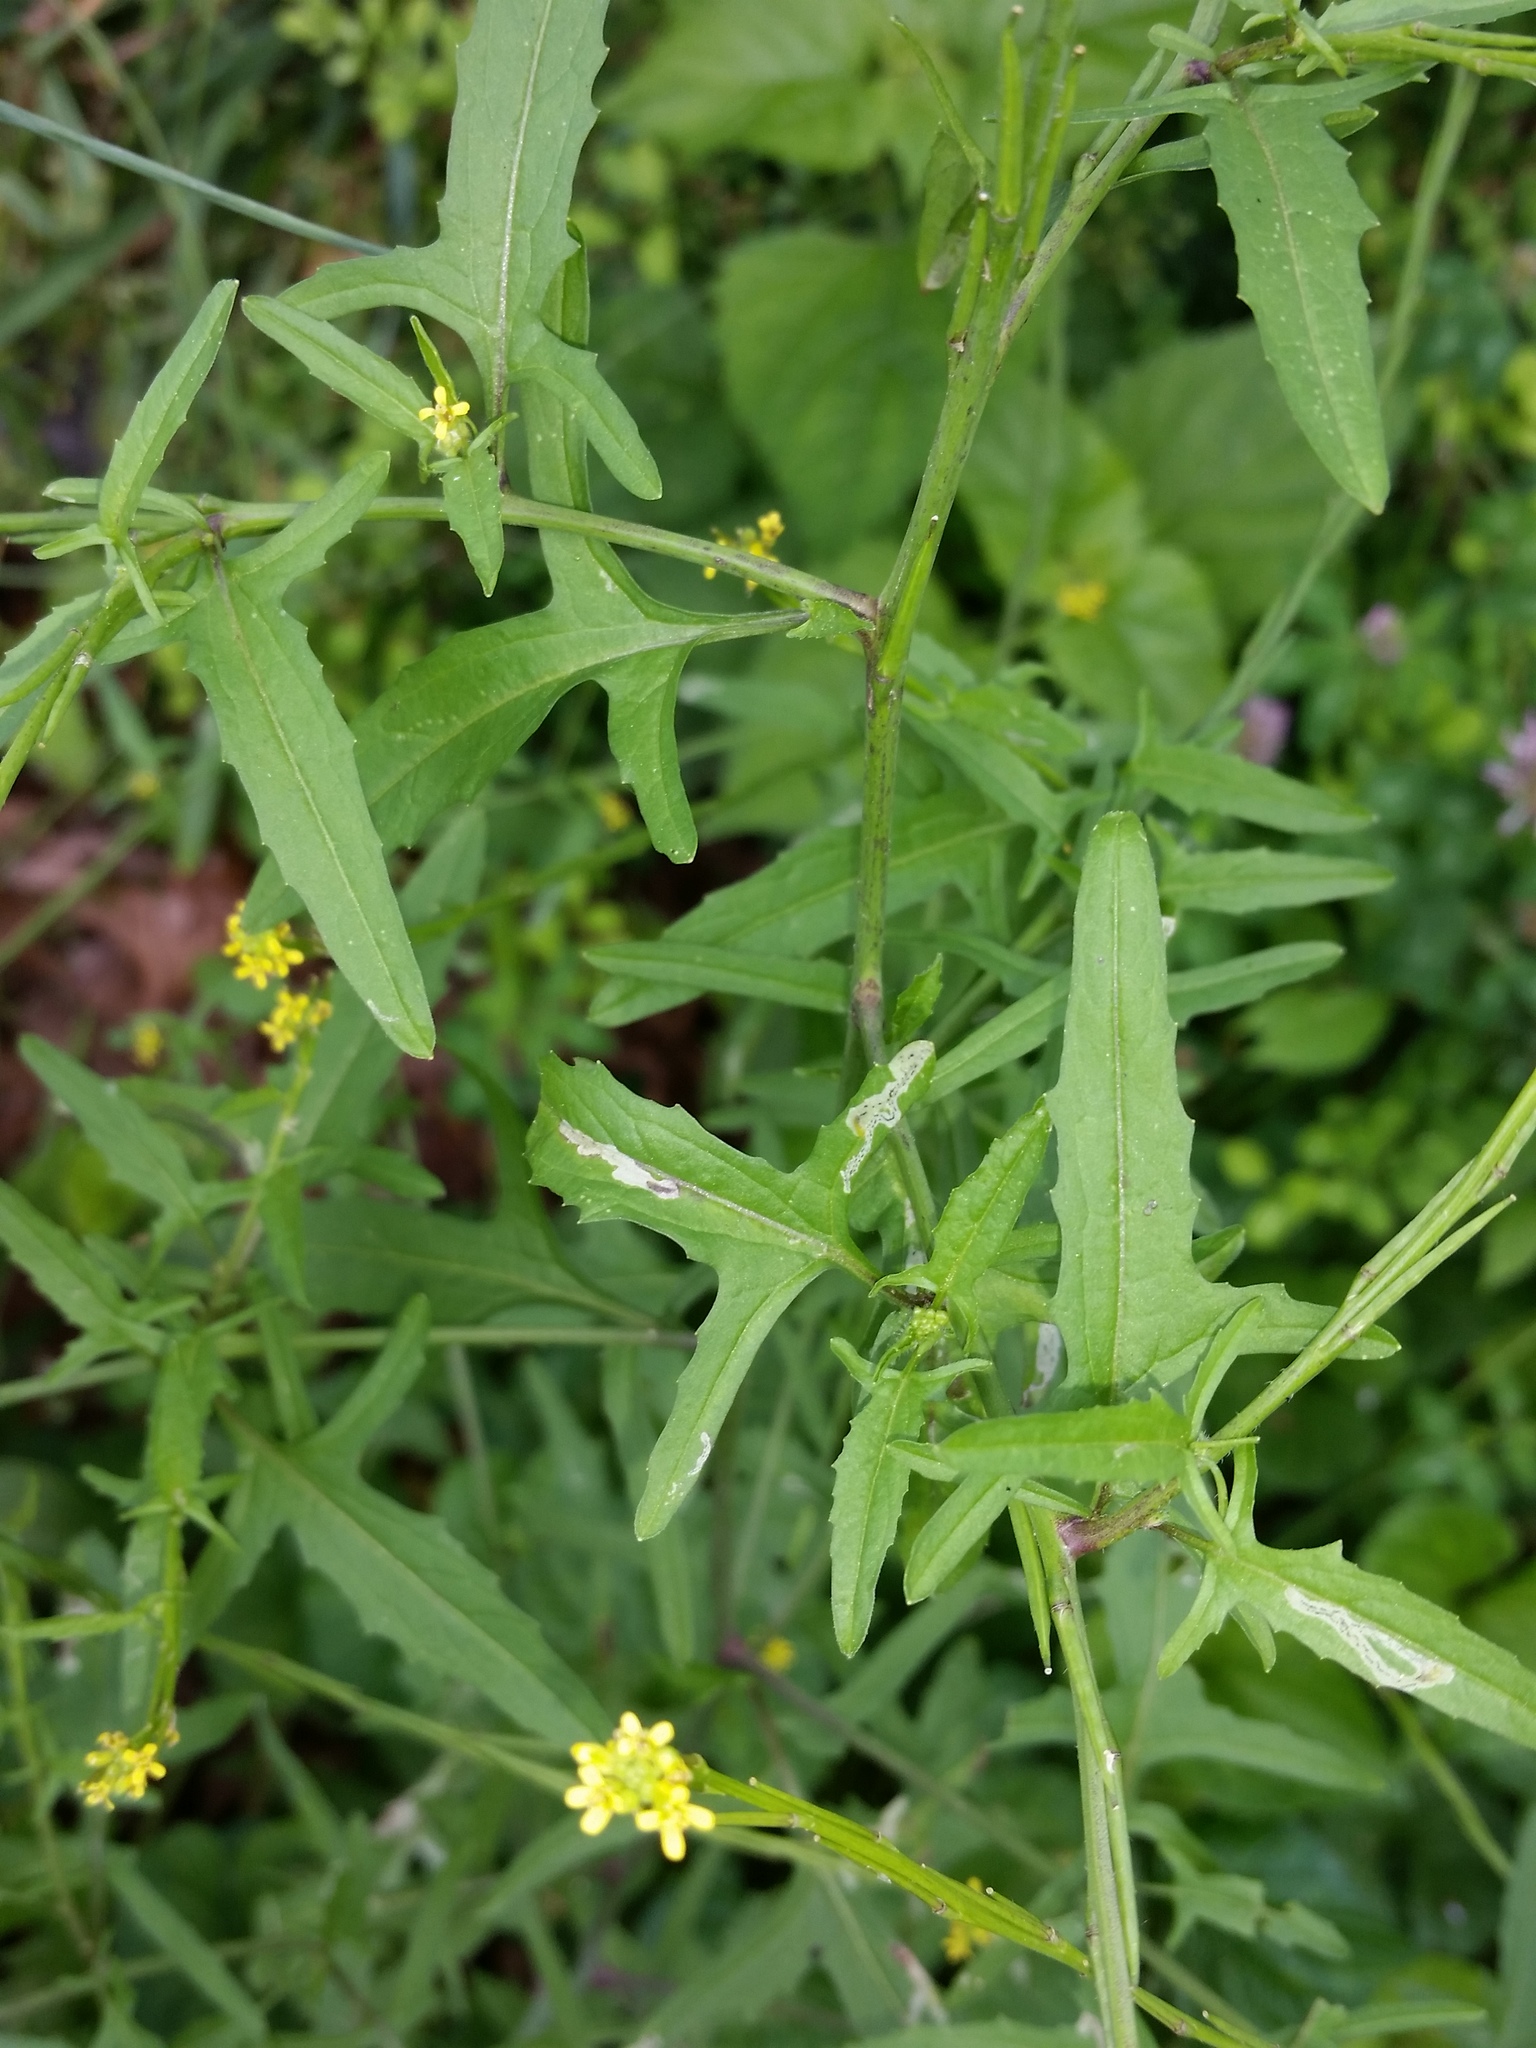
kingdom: Animalia
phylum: Arthropoda
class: Insecta
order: Diptera
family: Agromyzidae
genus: Liriomyza
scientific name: Liriomyza brassicae
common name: Serpentine leaf miner
